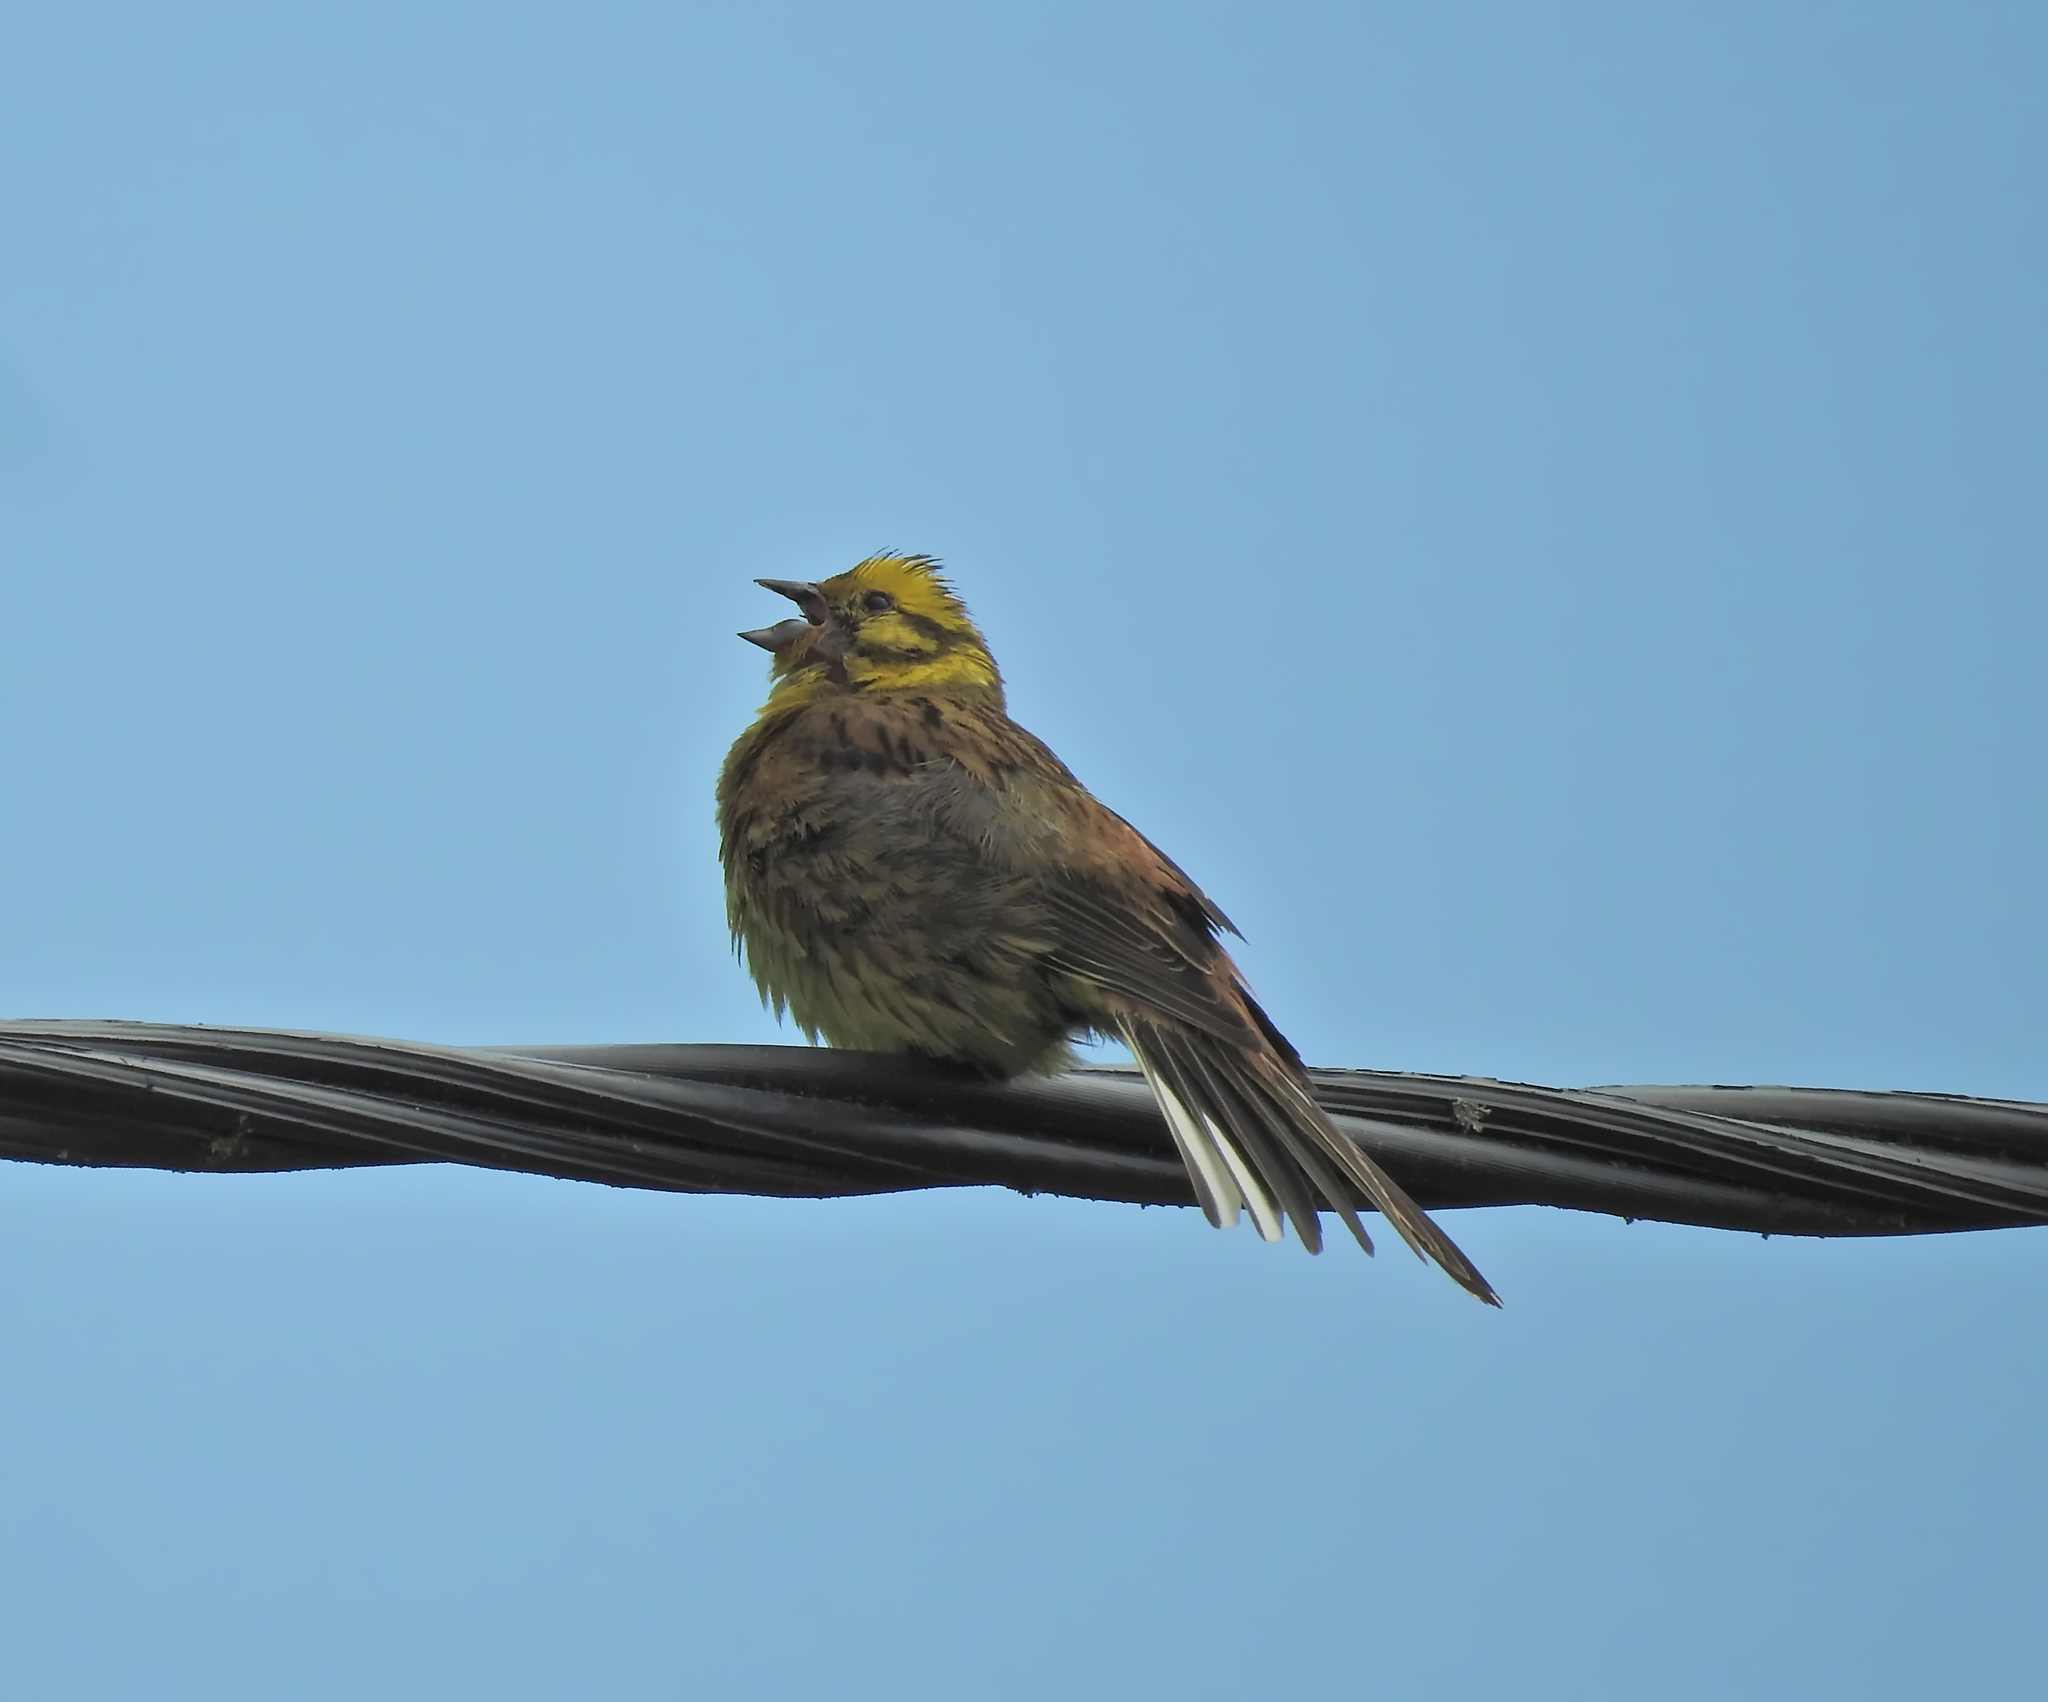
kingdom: Animalia
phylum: Chordata
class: Aves
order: Passeriformes
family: Emberizidae
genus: Emberiza
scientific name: Emberiza citrinella
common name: Yellowhammer
